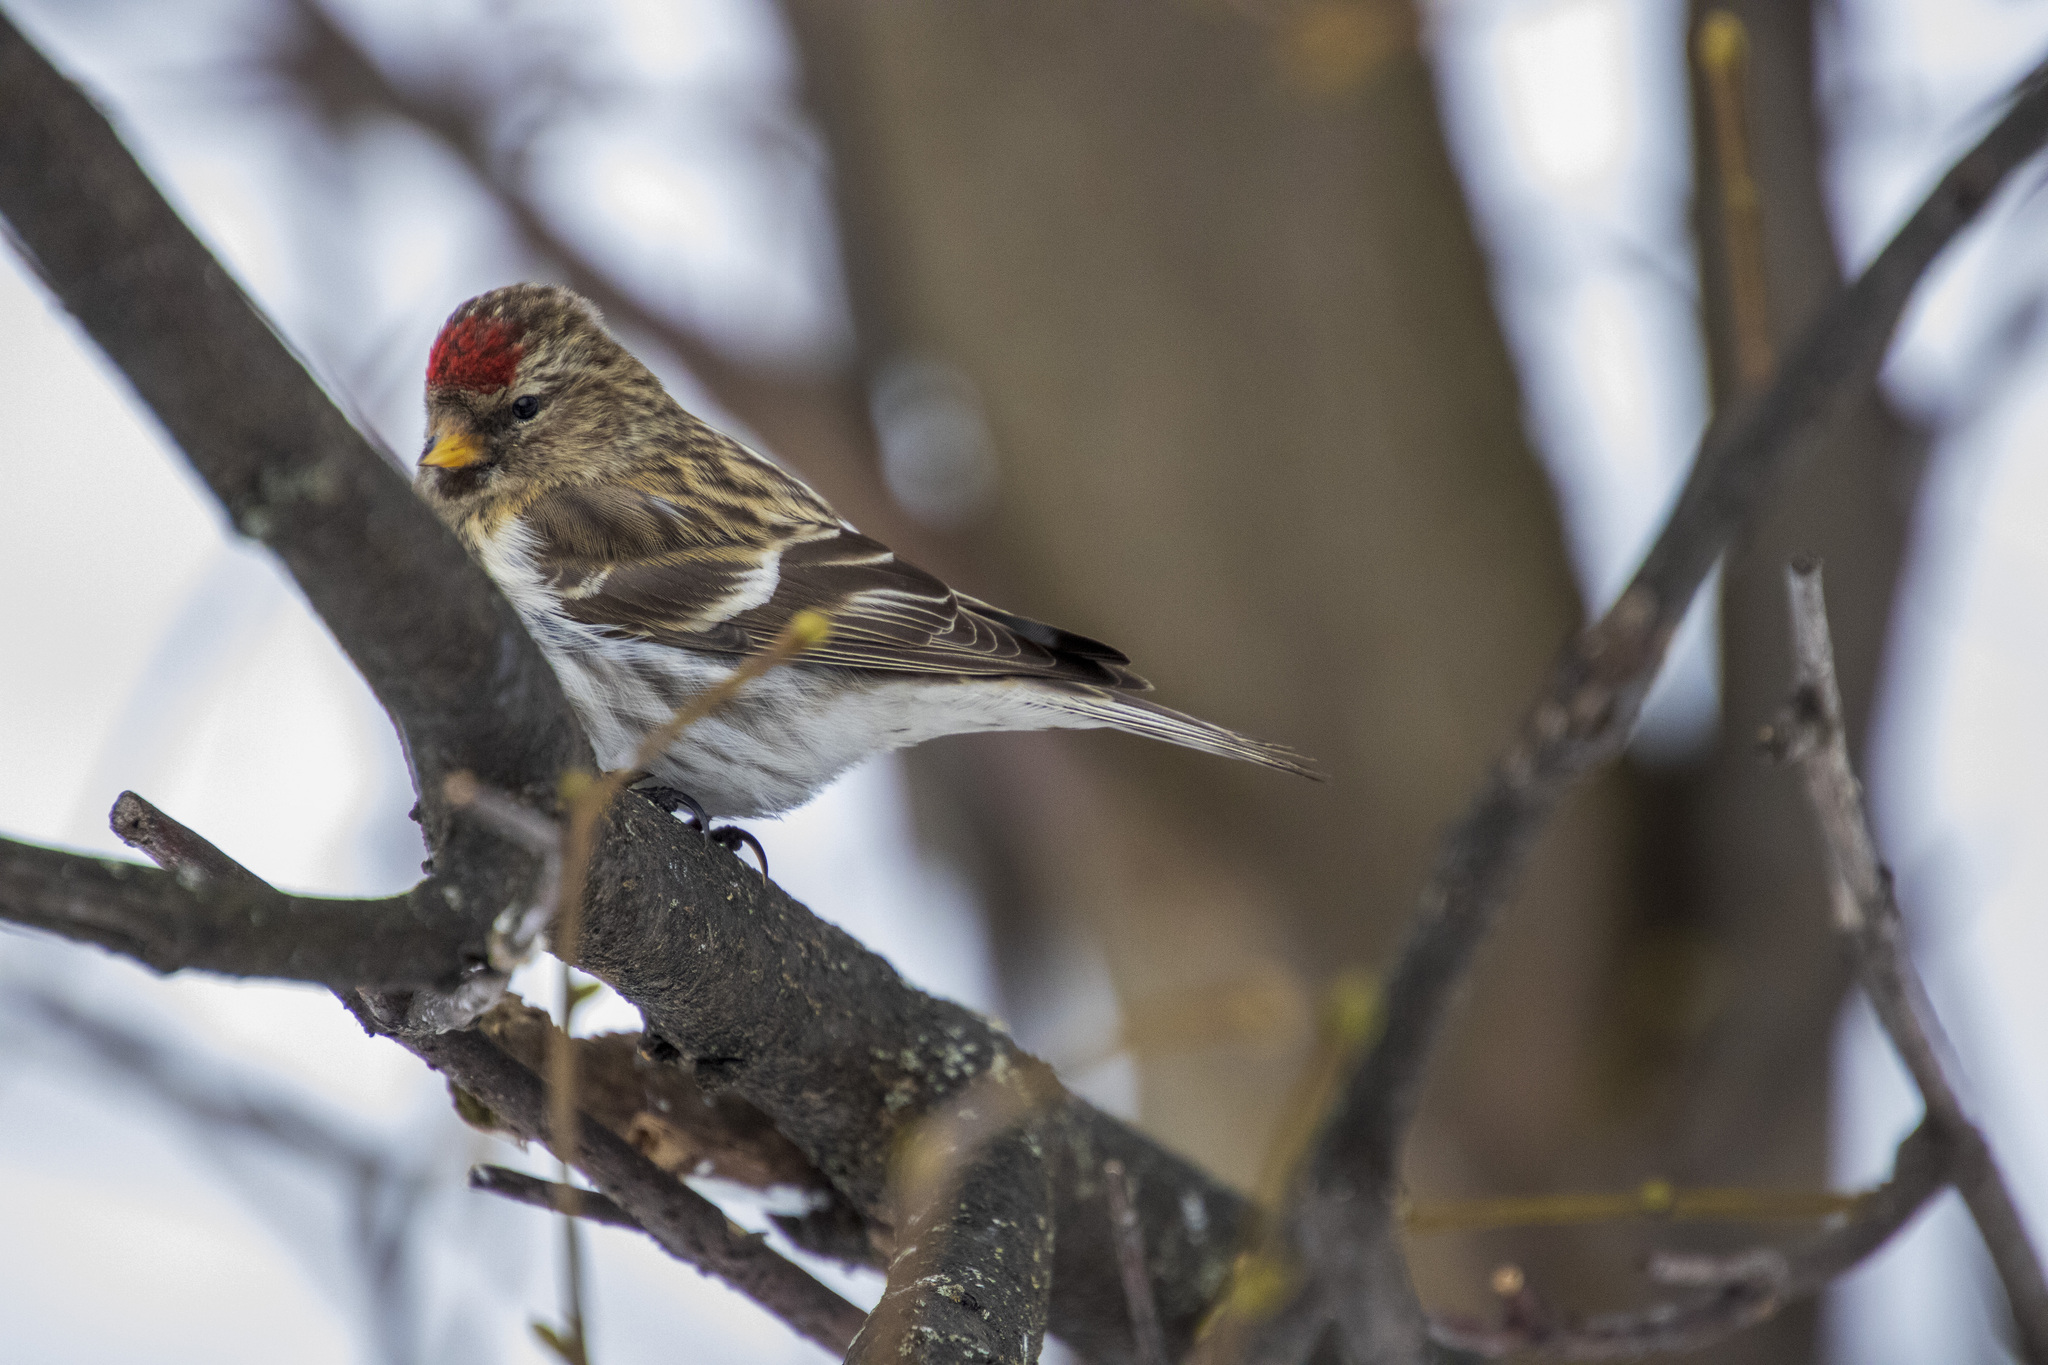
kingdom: Animalia
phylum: Chordata
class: Aves
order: Passeriformes
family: Fringillidae
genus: Acanthis
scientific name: Acanthis flammea
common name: Common redpoll
